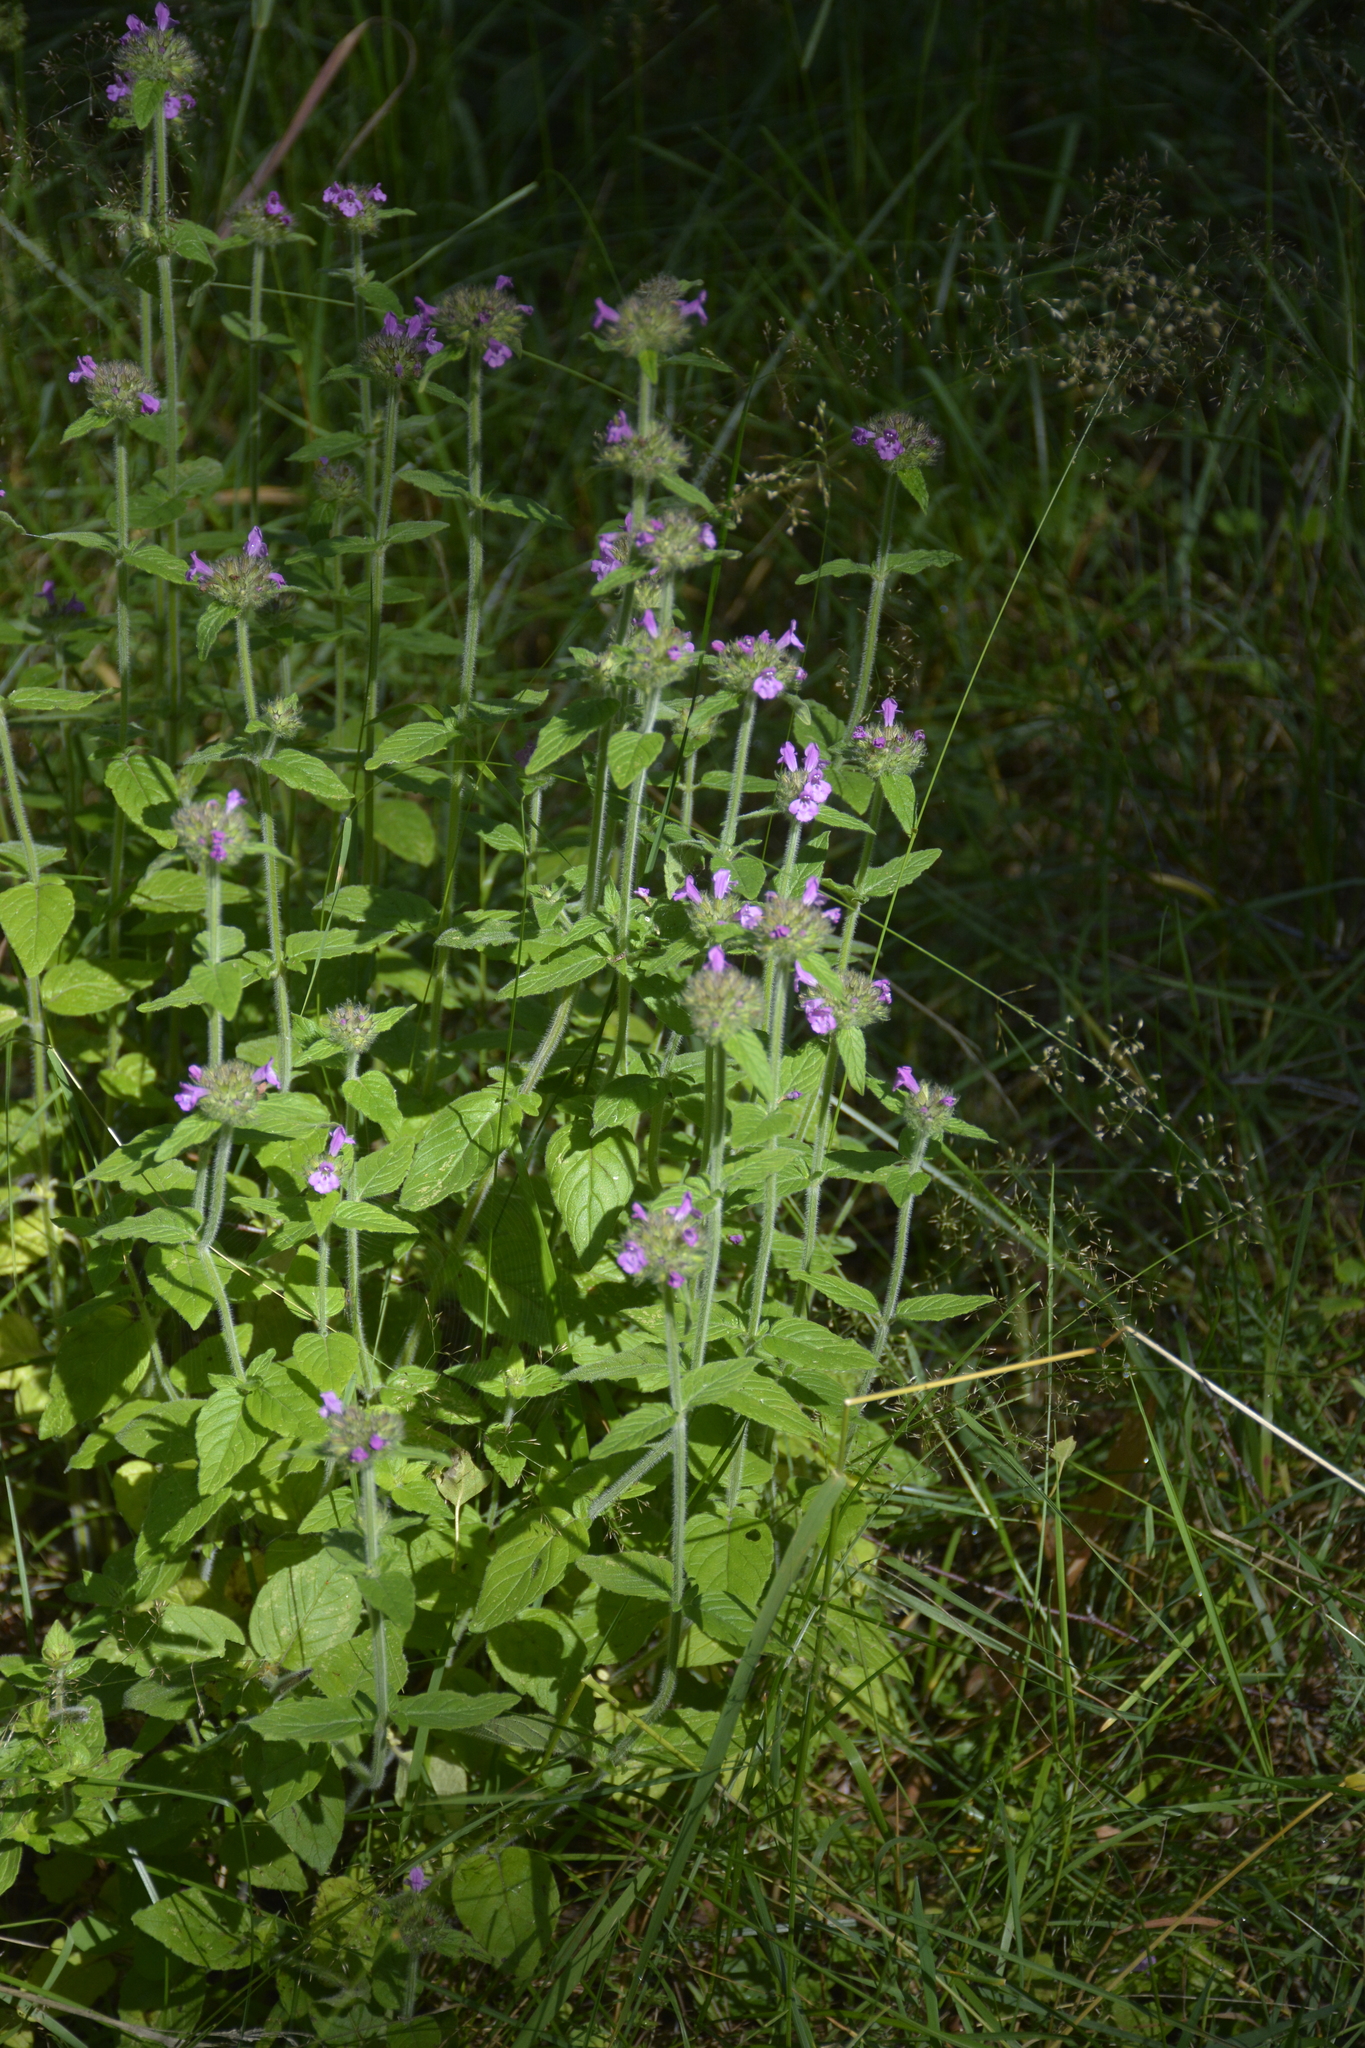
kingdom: Plantae
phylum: Tracheophyta
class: Magnoliopsida
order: Lamiales
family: Lamiaceae
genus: Clinopodium
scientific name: Clinopodium vulgare
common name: Wild basil
